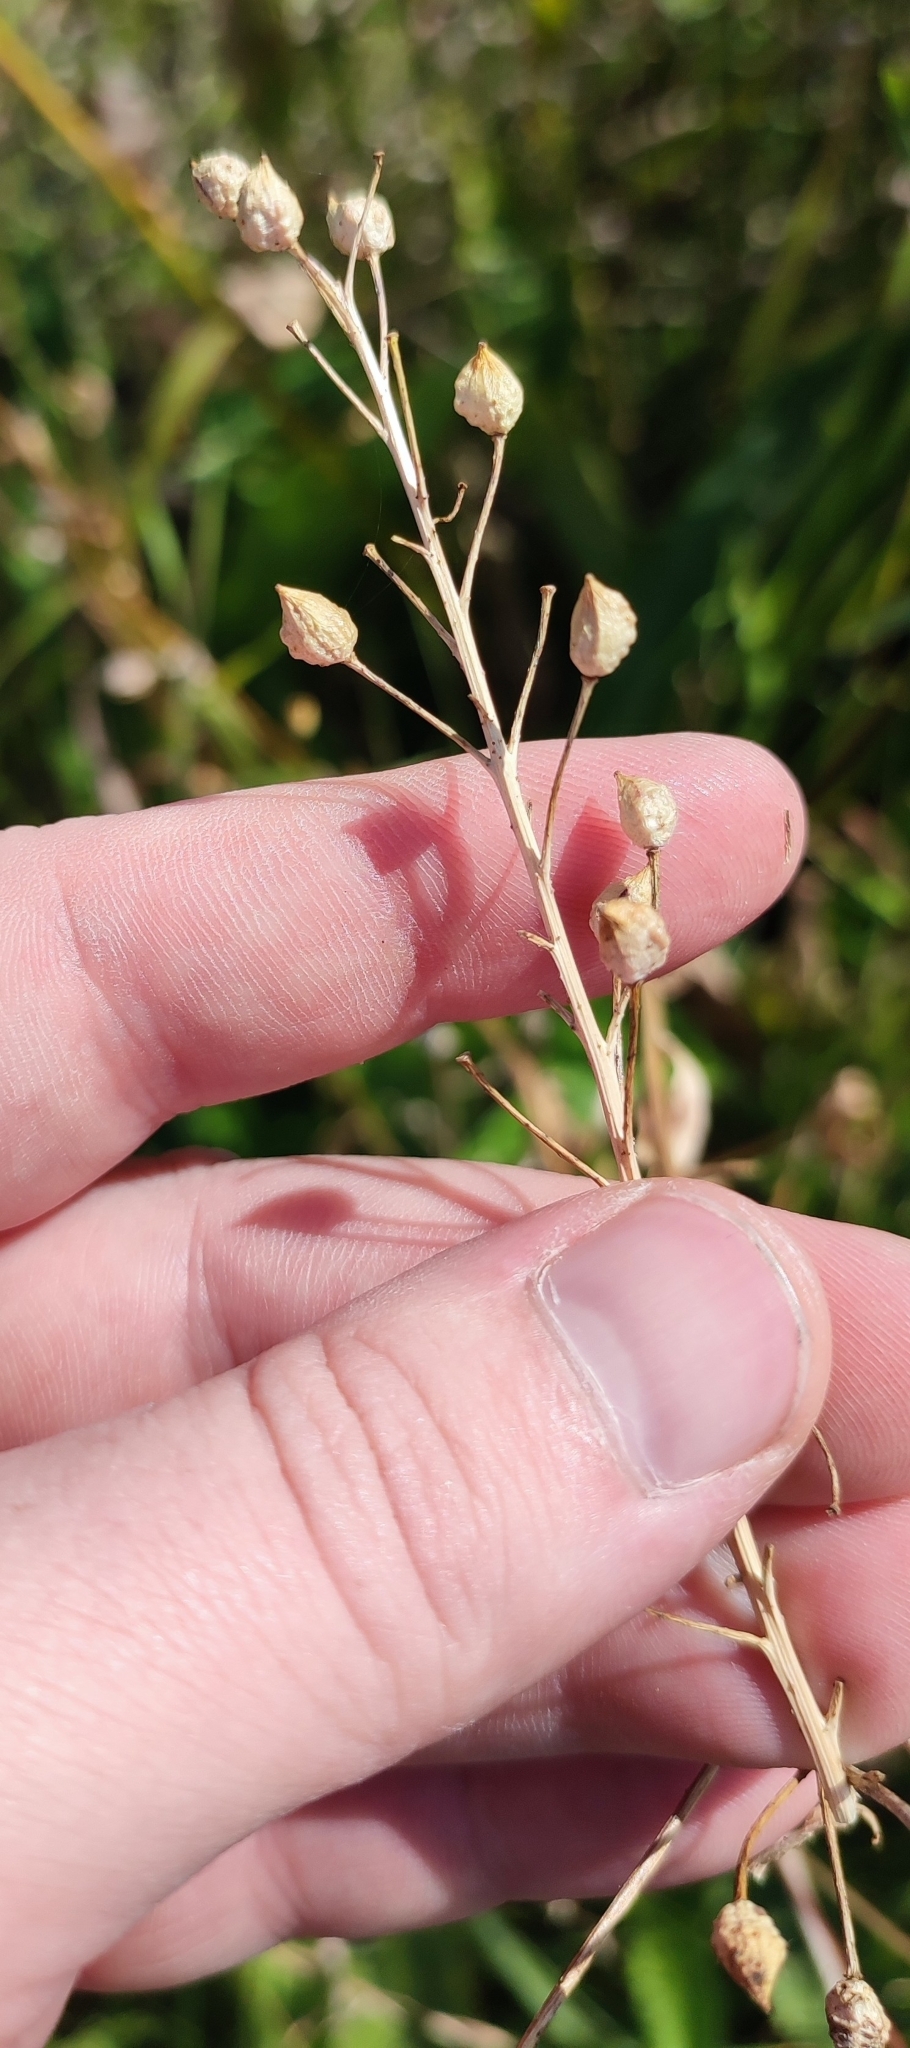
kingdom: Plantae
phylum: Tracheophyta
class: Magnoliopsida
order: Brassicales
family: Brassicaceae
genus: Bunias
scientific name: Bunias orientalis
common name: Warty-cabbage
